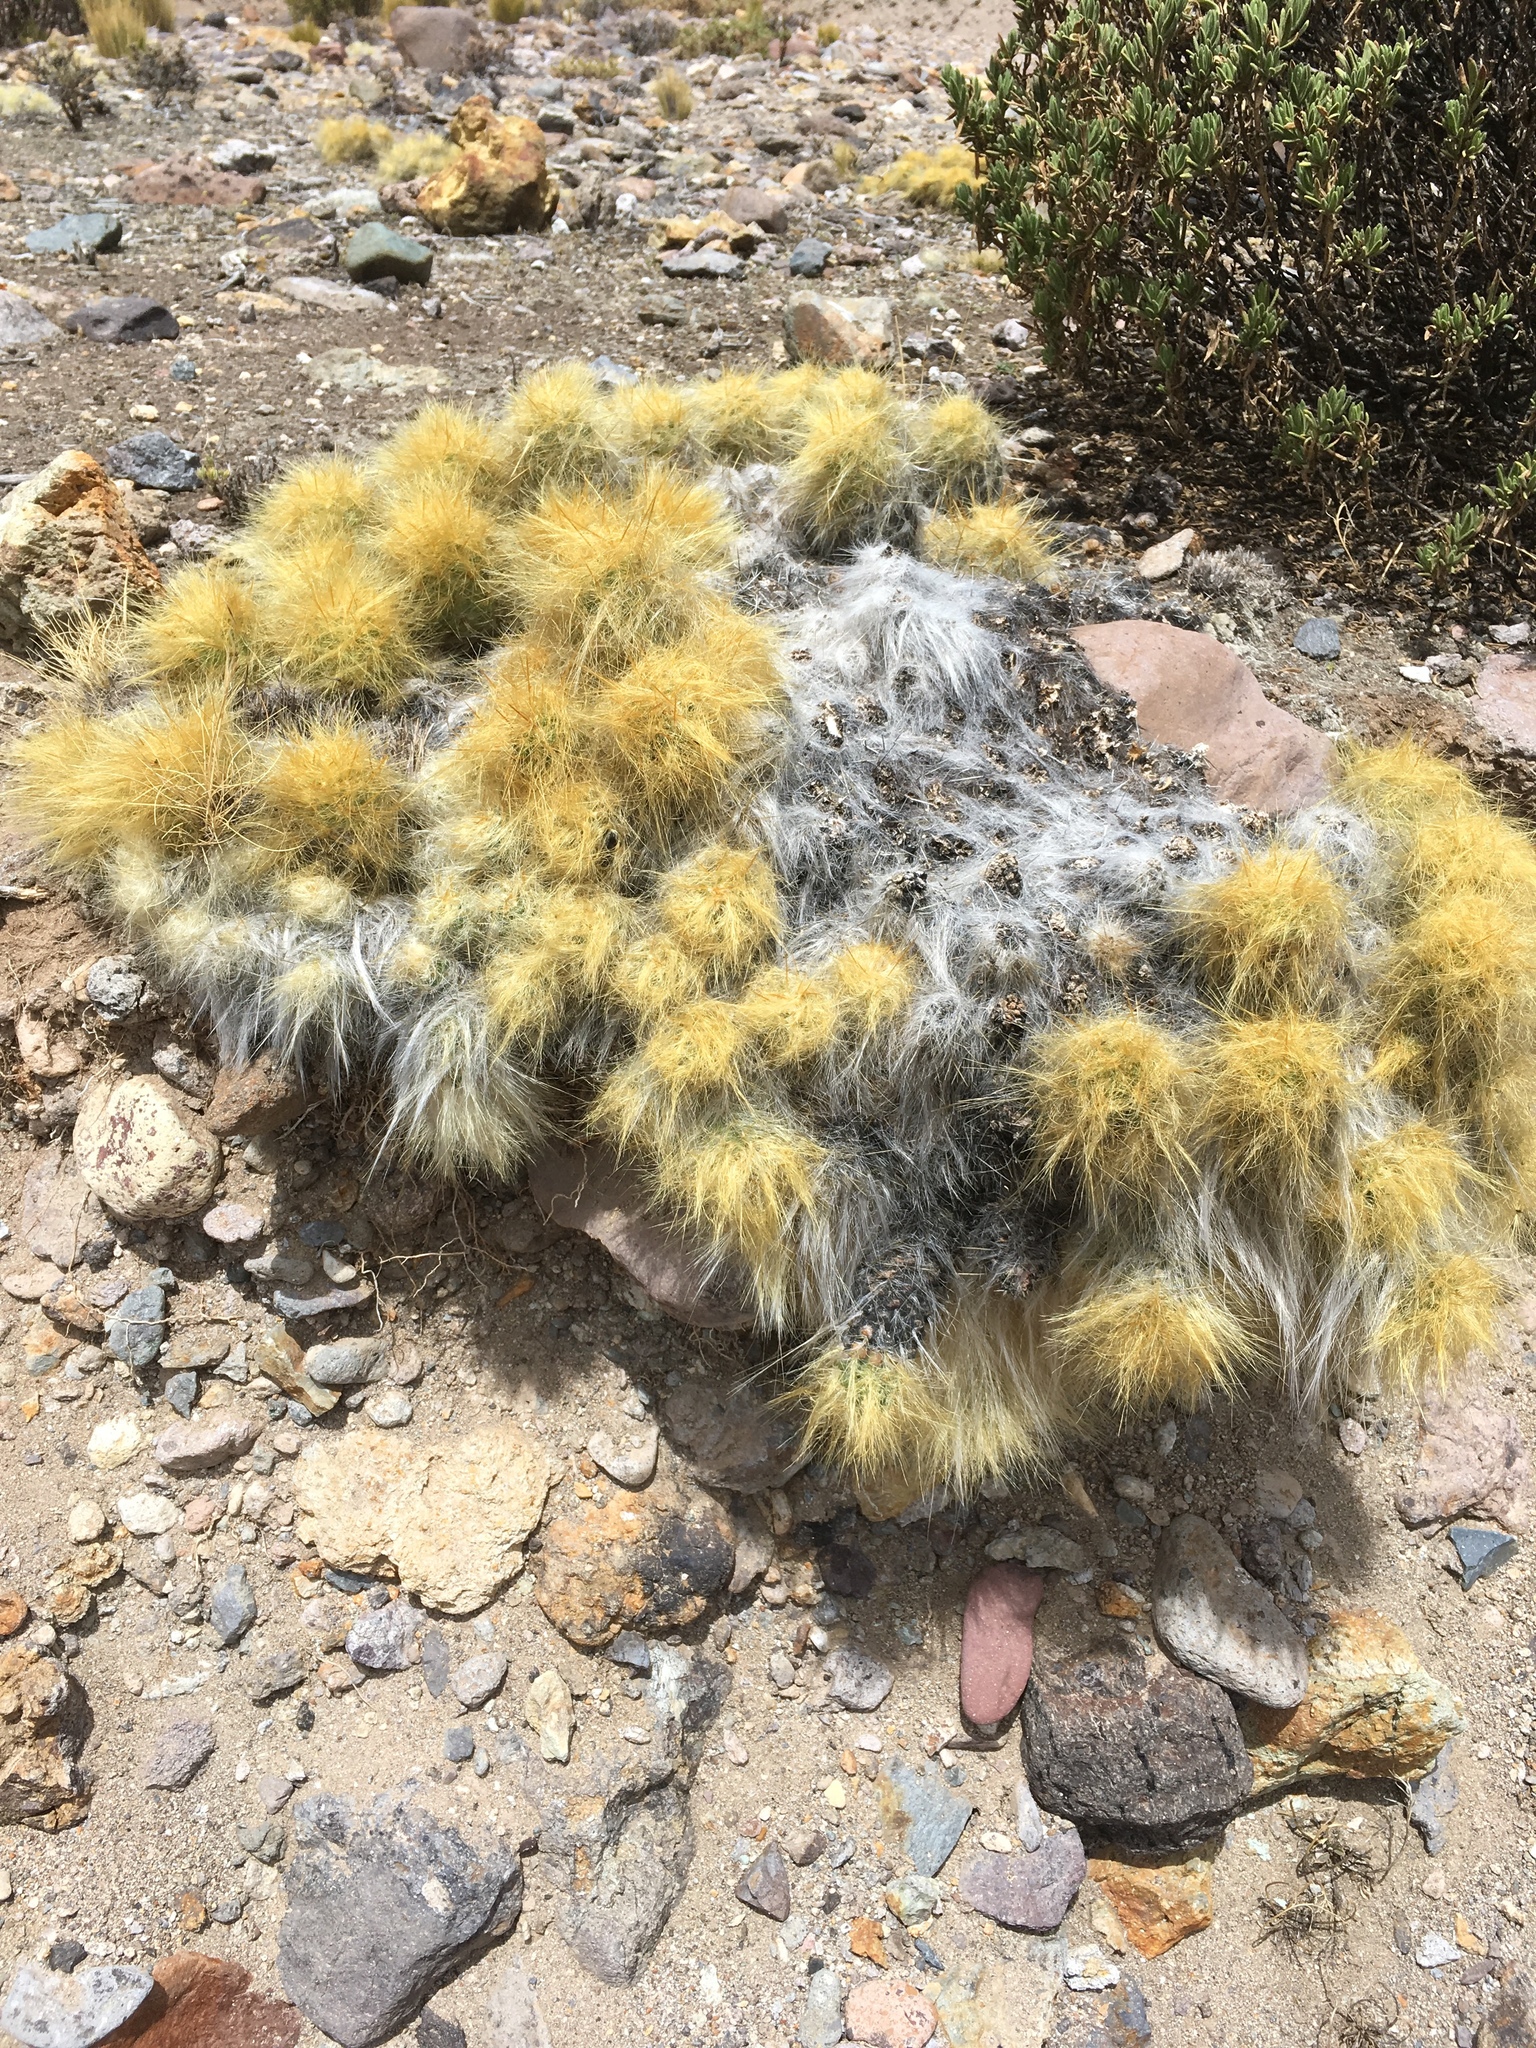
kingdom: Plantae
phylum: Tracheophyta
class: Magnoliopsida
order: Caryophyllales
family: Cactaceae
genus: Austrocylindropuntia
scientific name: Austrocylindropuntia floccosa
